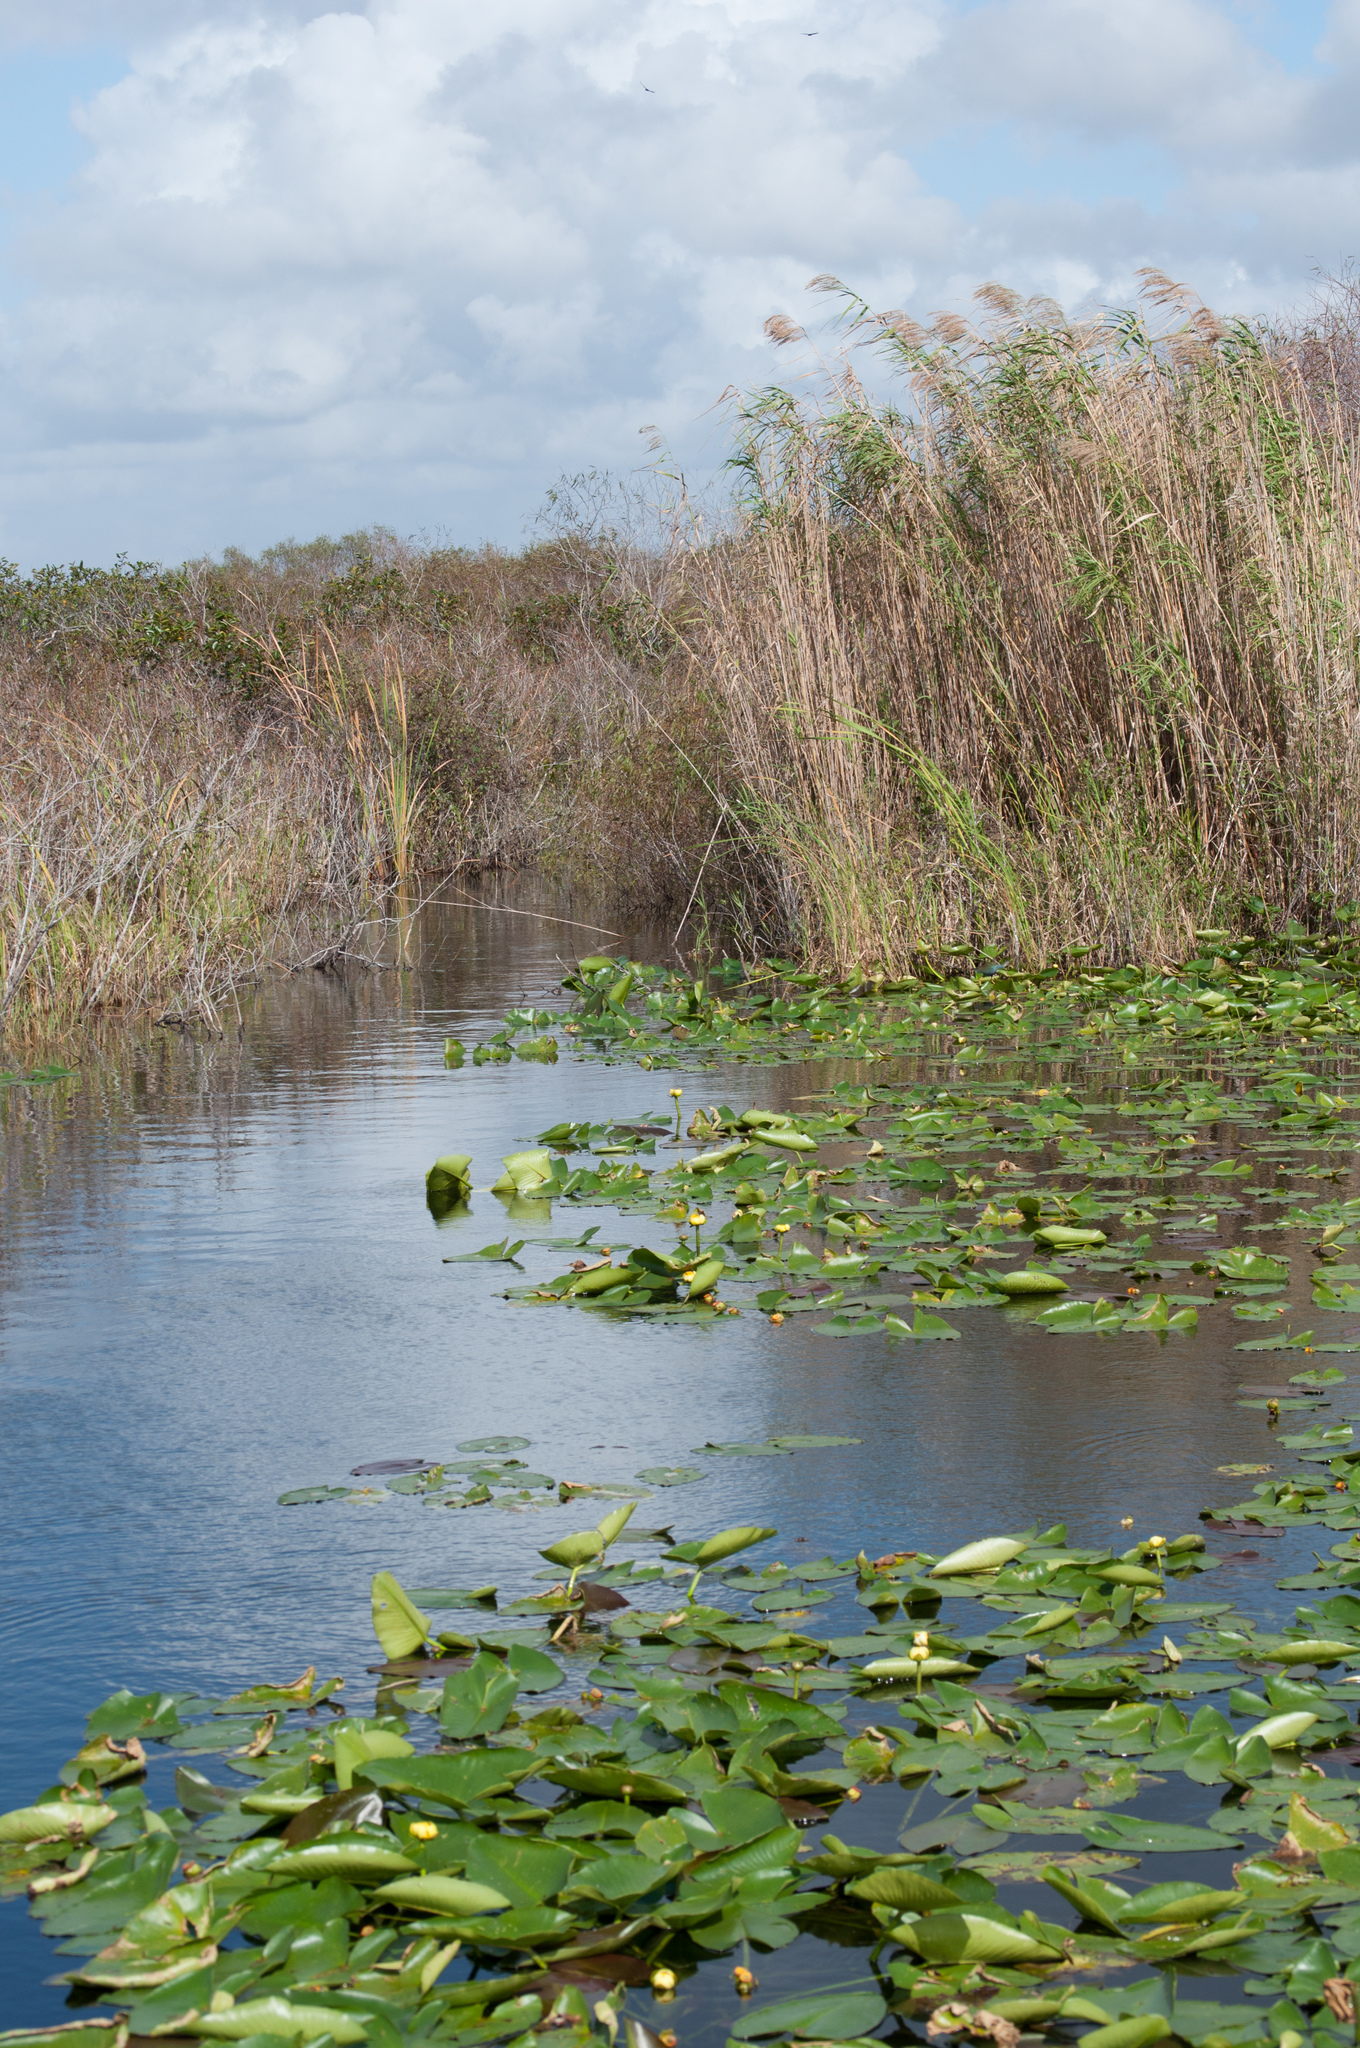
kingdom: Plantae
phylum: Tracheophyta
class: Magnoliopsida
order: Nymphaeales
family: Nymphaeaceae
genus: Nuphar
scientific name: Nuphar advena
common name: Spatter-dock
